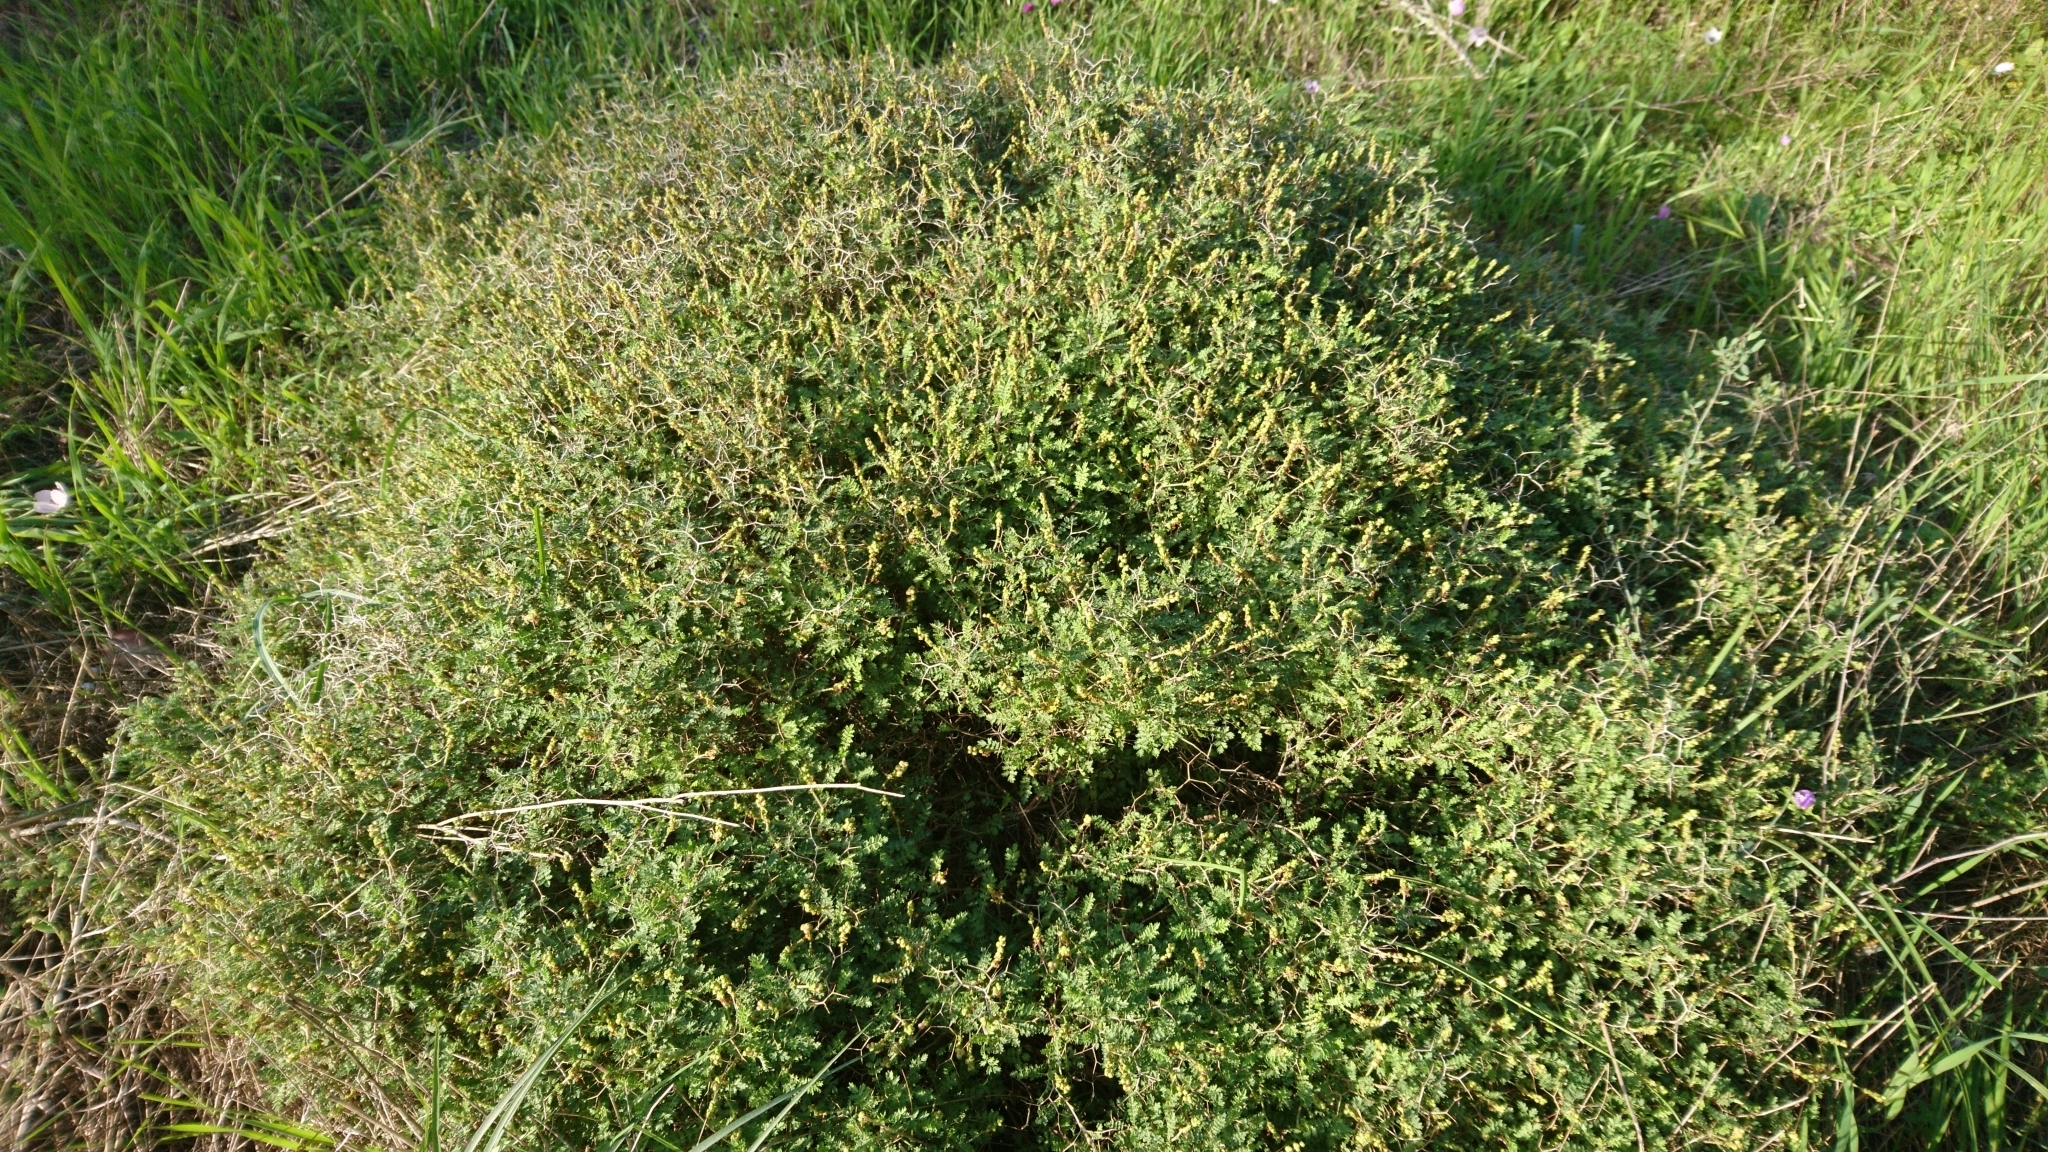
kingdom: Plantae
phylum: Tracheophyta
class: Magnoliopsida
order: Rosales
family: Rosaceae
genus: Sarcopoterium
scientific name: Sarcopoterium spinosum
